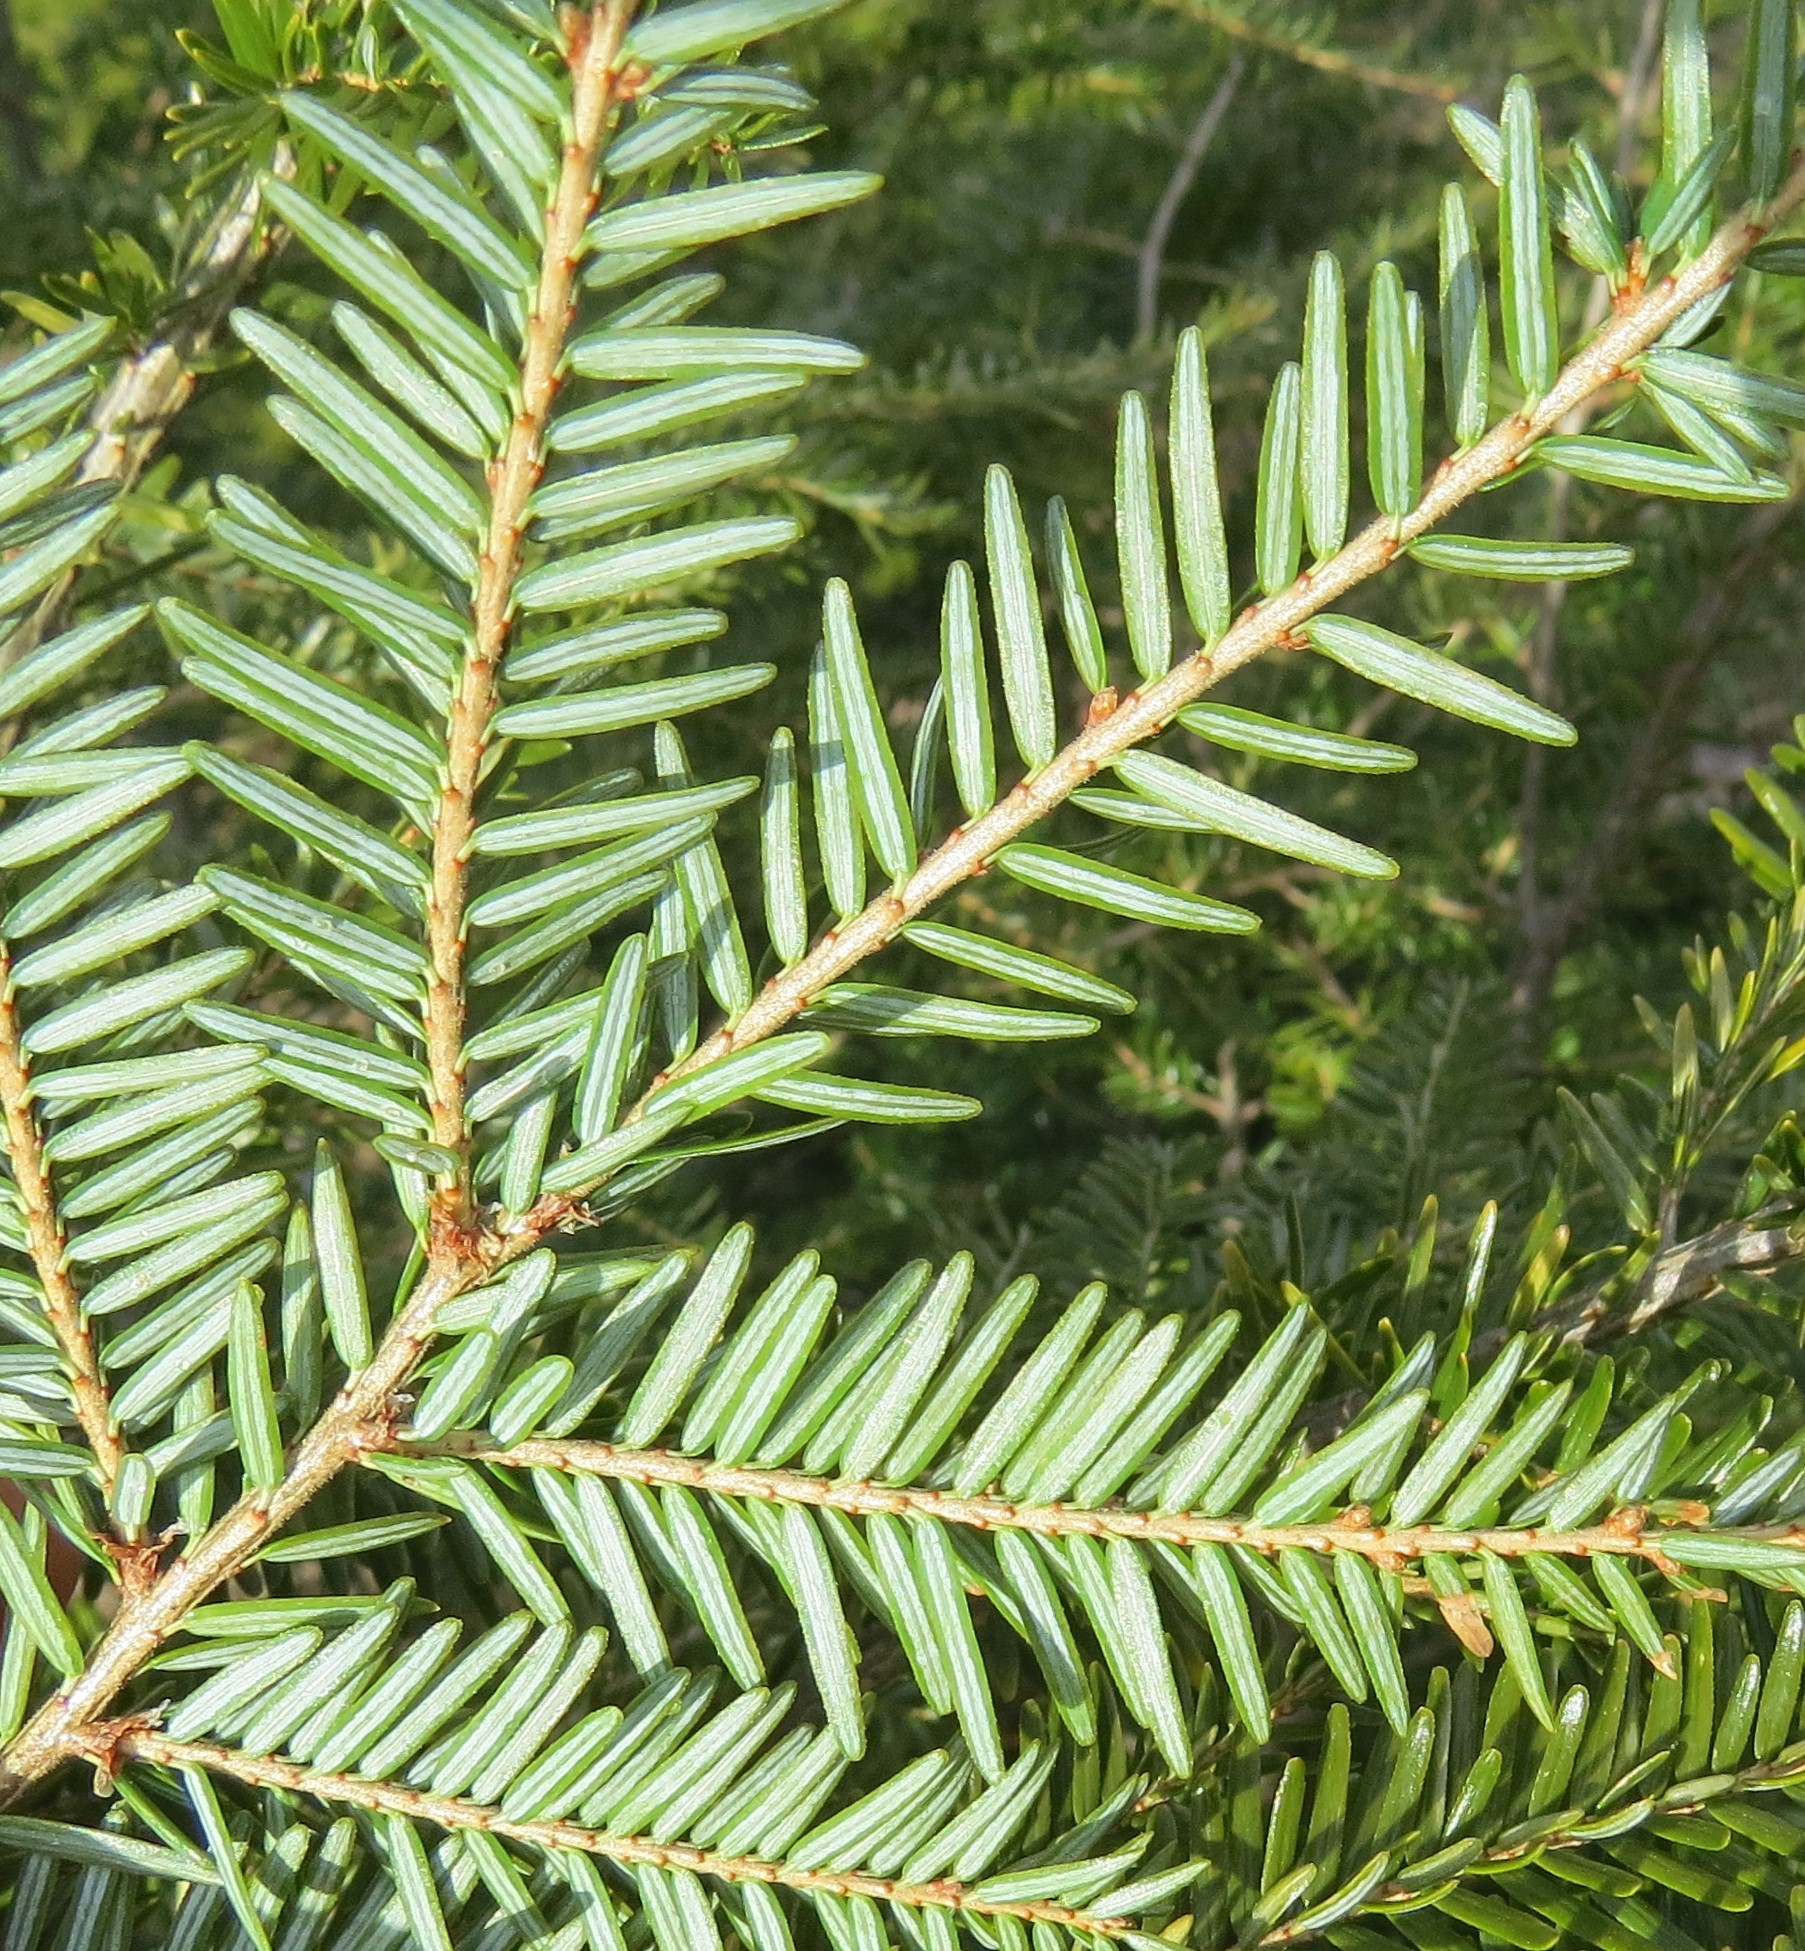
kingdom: Plantae
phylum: Tracheophyta
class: Pinopsida
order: Pinales
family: Pinaceae
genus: Tsuga
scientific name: Tsuga canadensis
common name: Eastern hemlock
